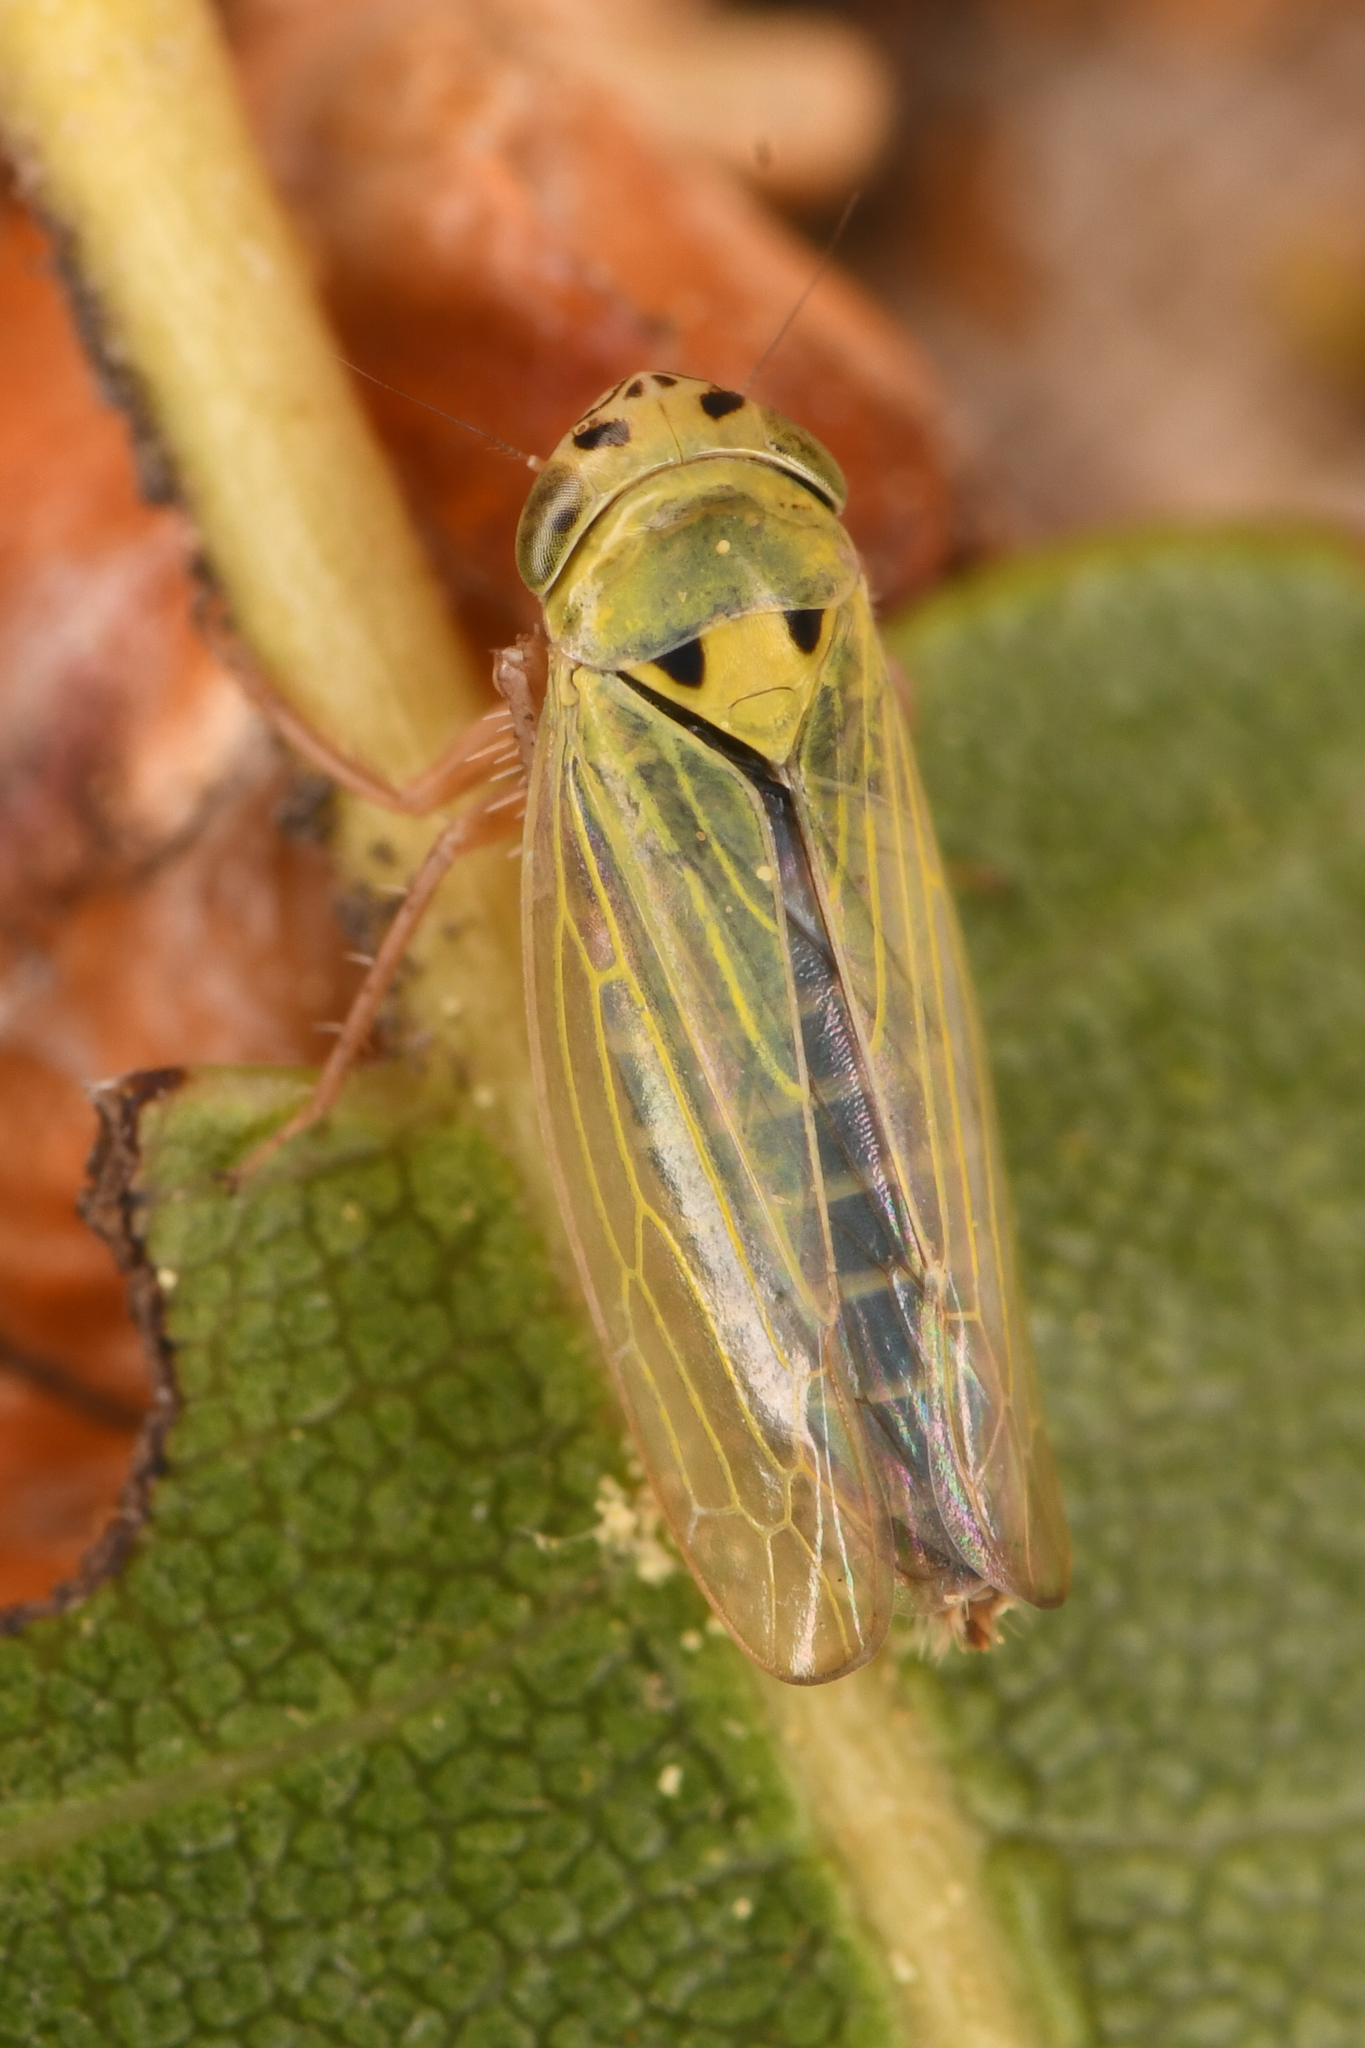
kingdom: Animalia
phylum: Arthropoda
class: Insecta
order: Hemiptera
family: Cicadellidae
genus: Gloridonus
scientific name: Gloridonus venditarius
